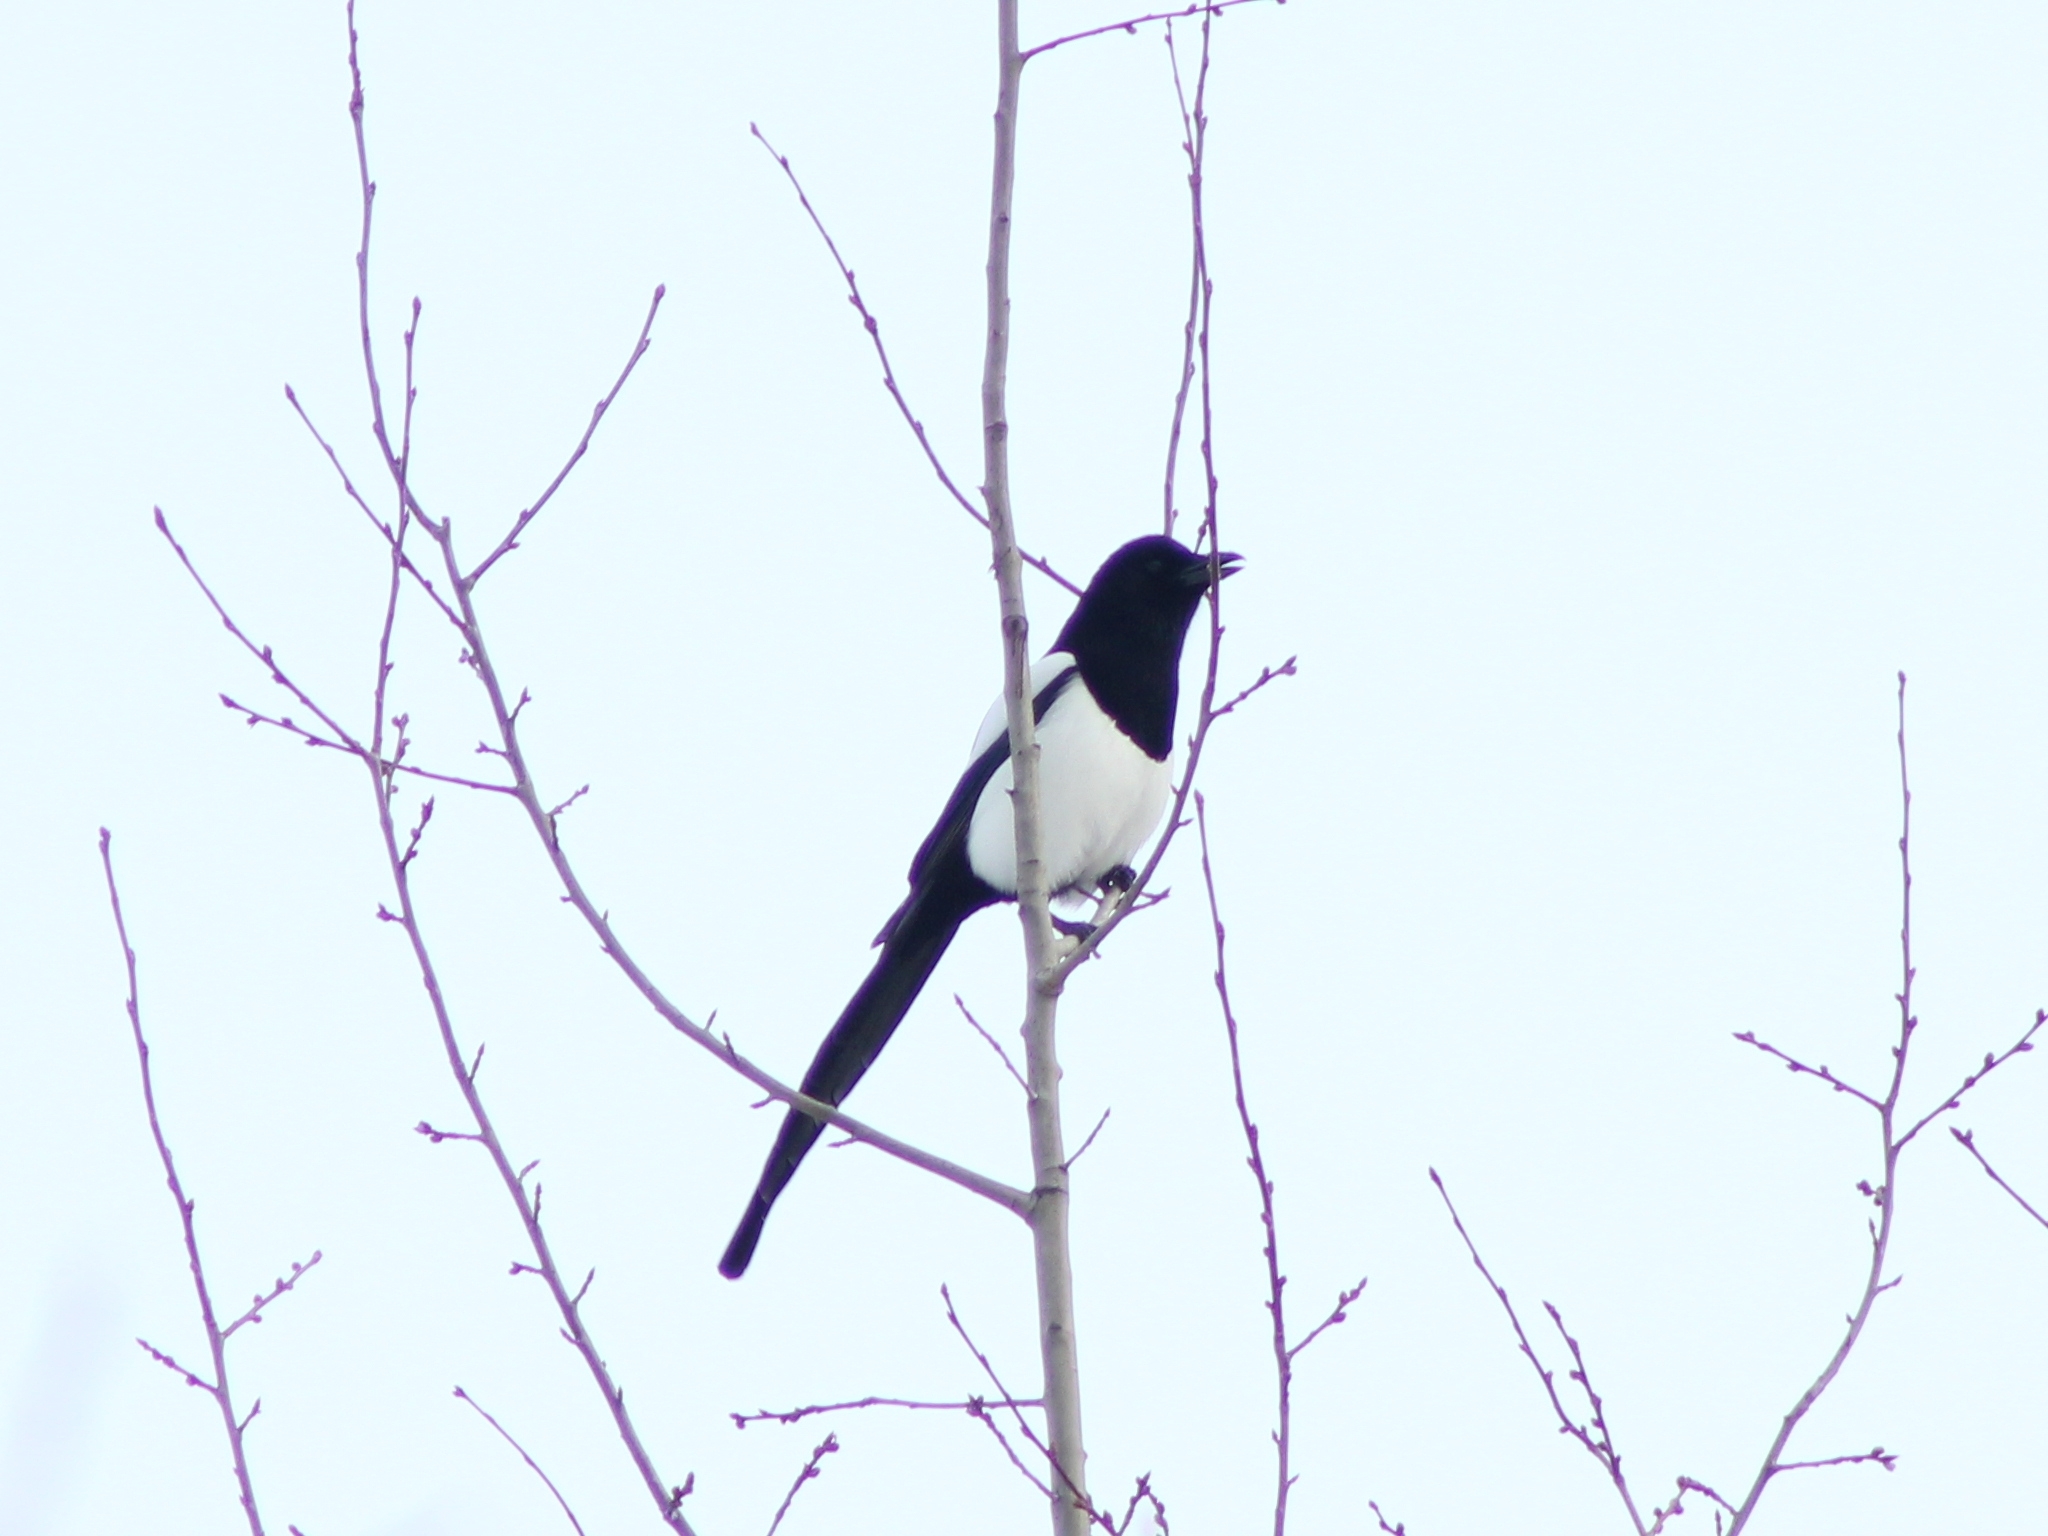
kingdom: Animalia
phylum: Chordata
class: Aves
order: Passeriformes
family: Corvidae
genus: Pica
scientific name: Pica pica
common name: Eurasian magpie
